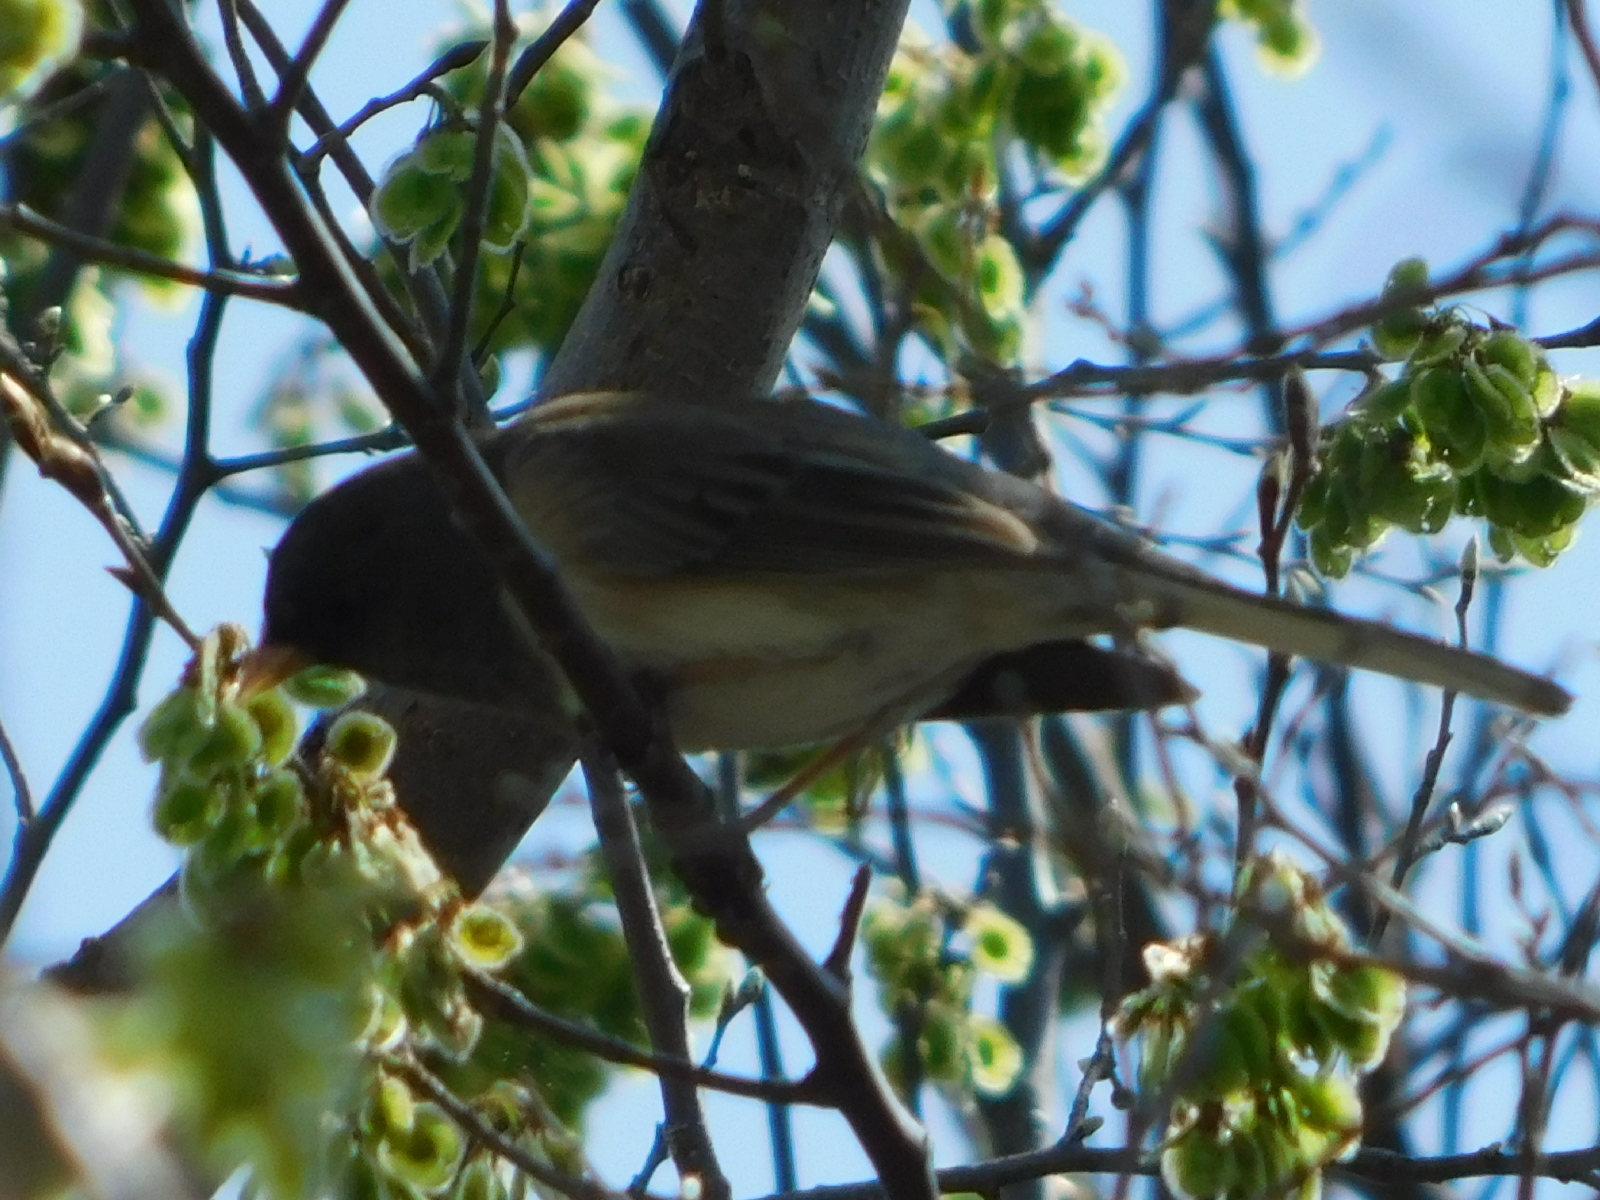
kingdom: Animalia
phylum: Chordata
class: Aves
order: Passeriformes
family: Passerellidae
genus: Junco
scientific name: Junco hyemalis
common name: Dark-eyed junco
